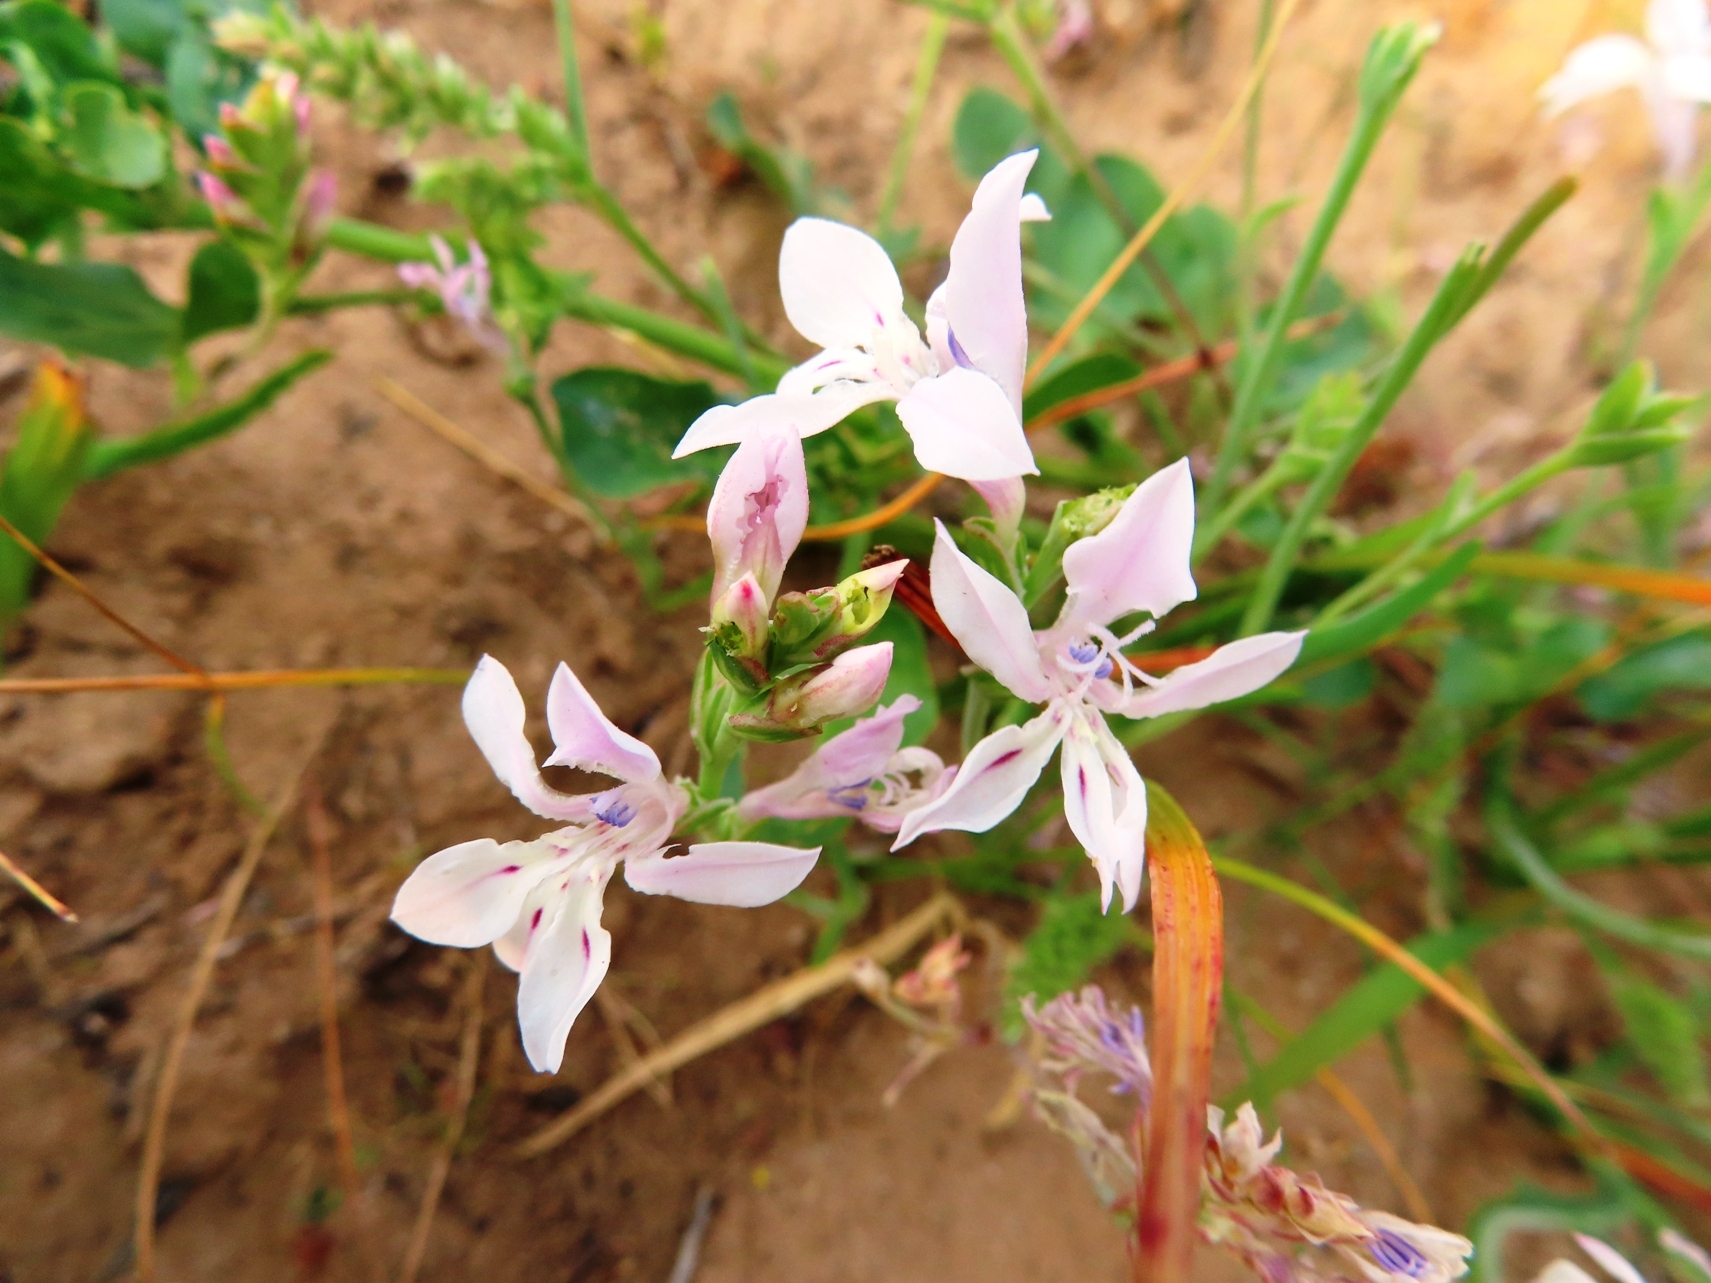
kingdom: Plantae
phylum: Tracheophyta
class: Liliopsida
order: Asparagales
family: Iridaceae
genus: Lapeirousia
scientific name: Lapeirousia divaricata
